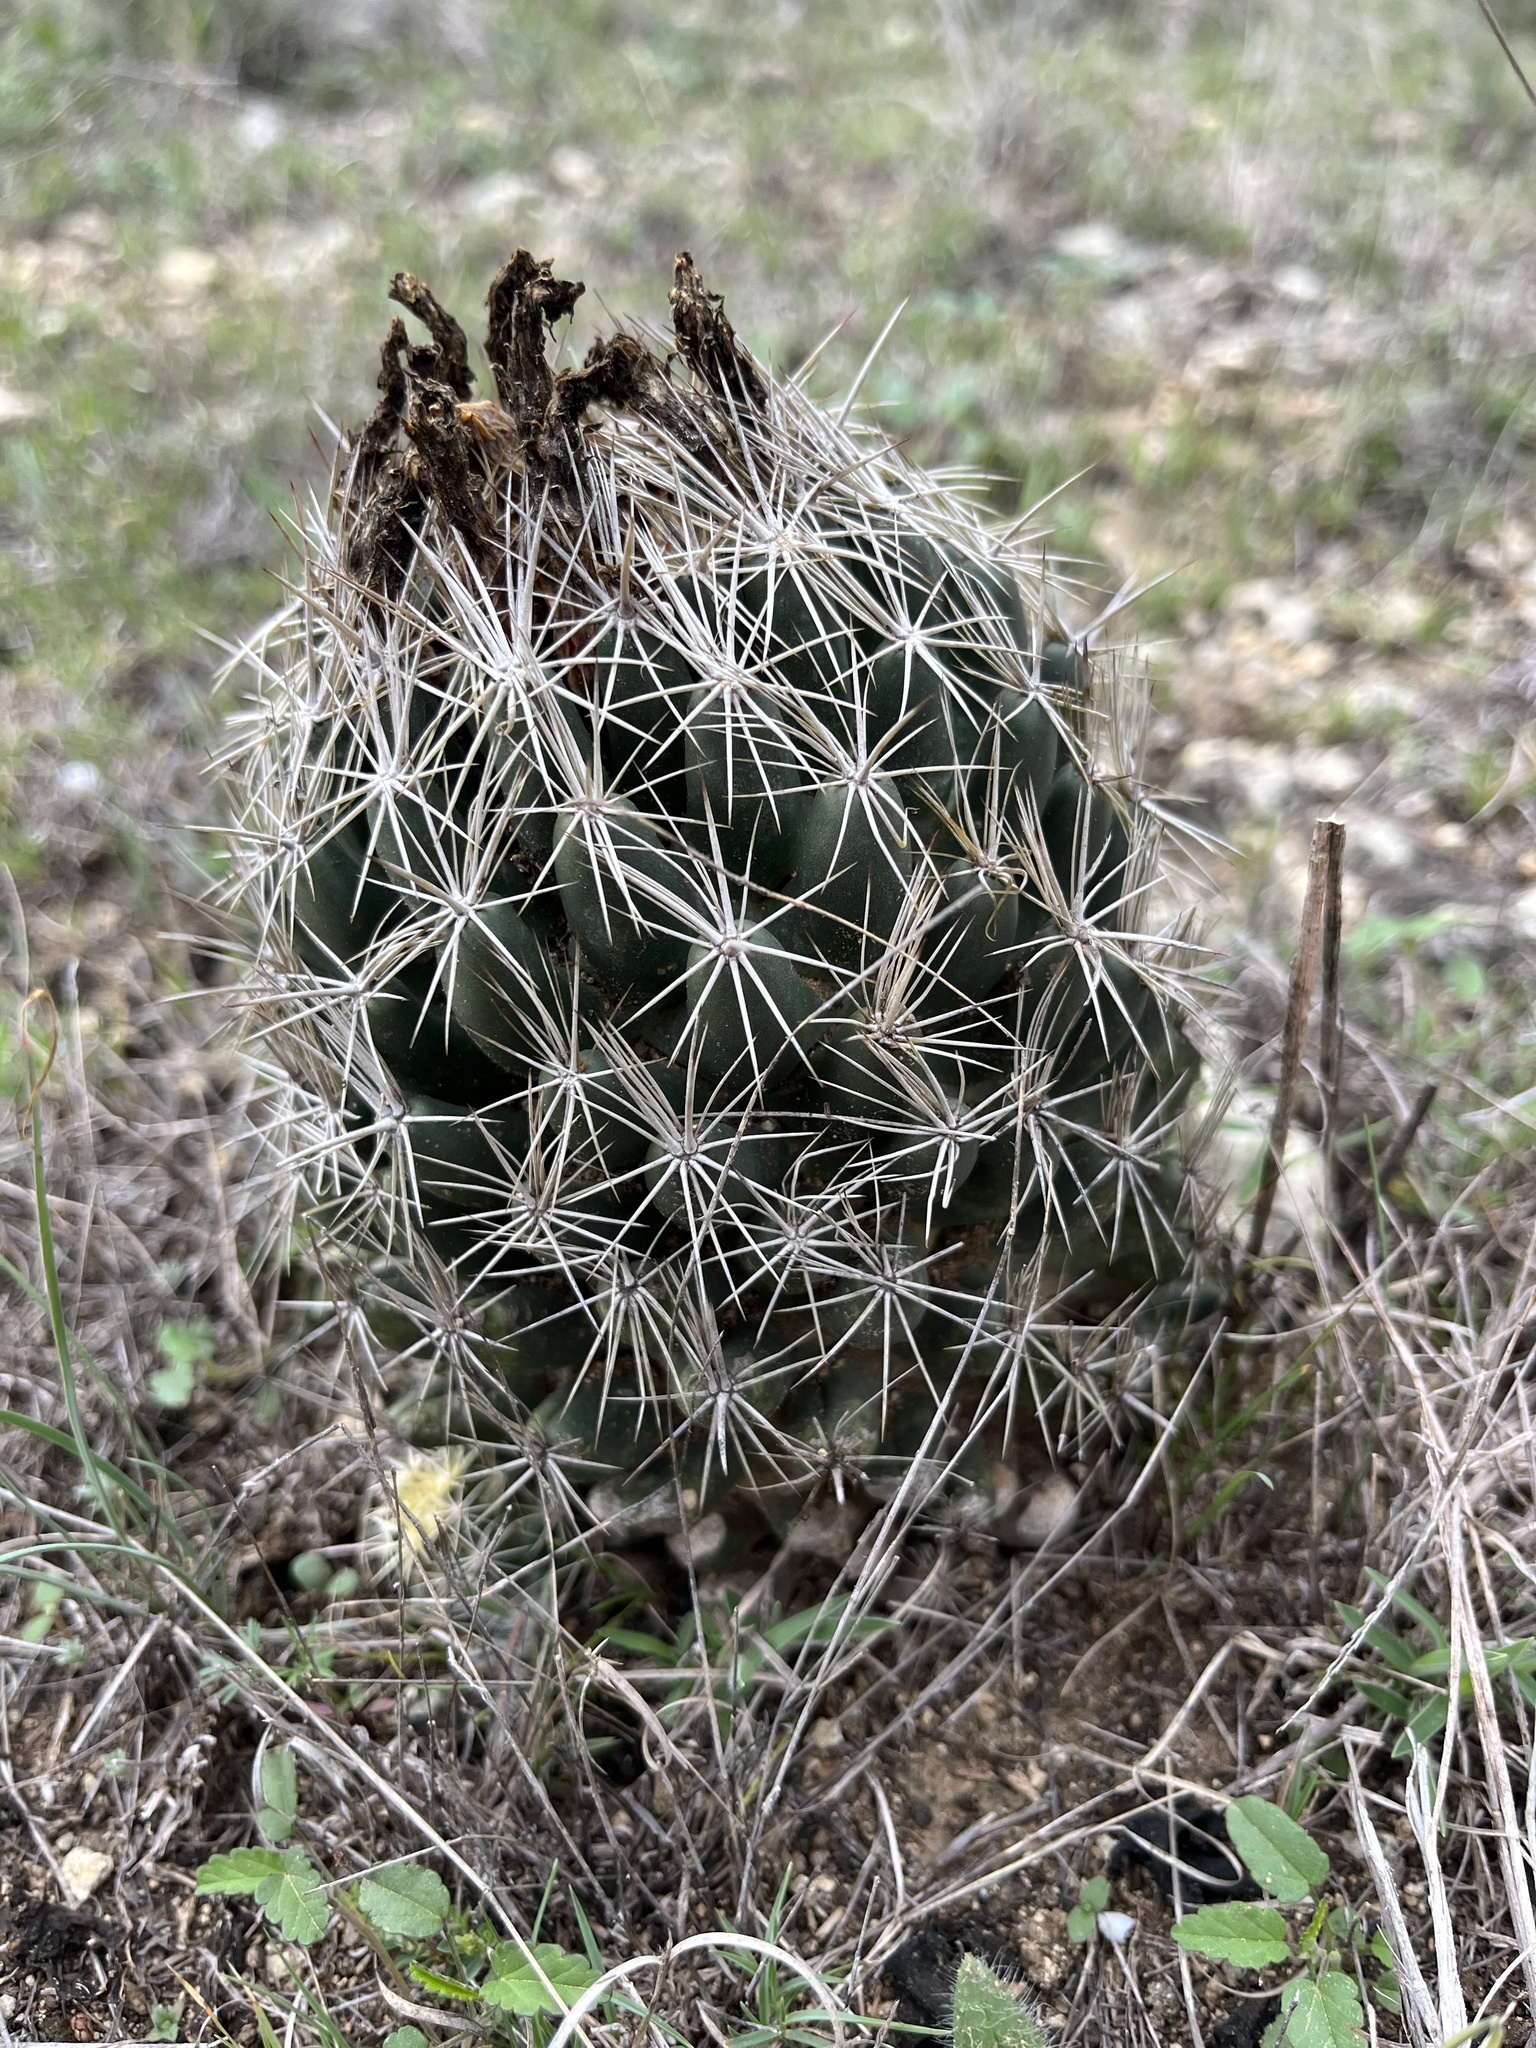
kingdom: Plantae
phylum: Tracheophyta
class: Magnoliopsida
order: Caryophyllales
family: Cactaceae
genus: Coryphantha
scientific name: Coryphantha sulcata
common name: Finger cactus
